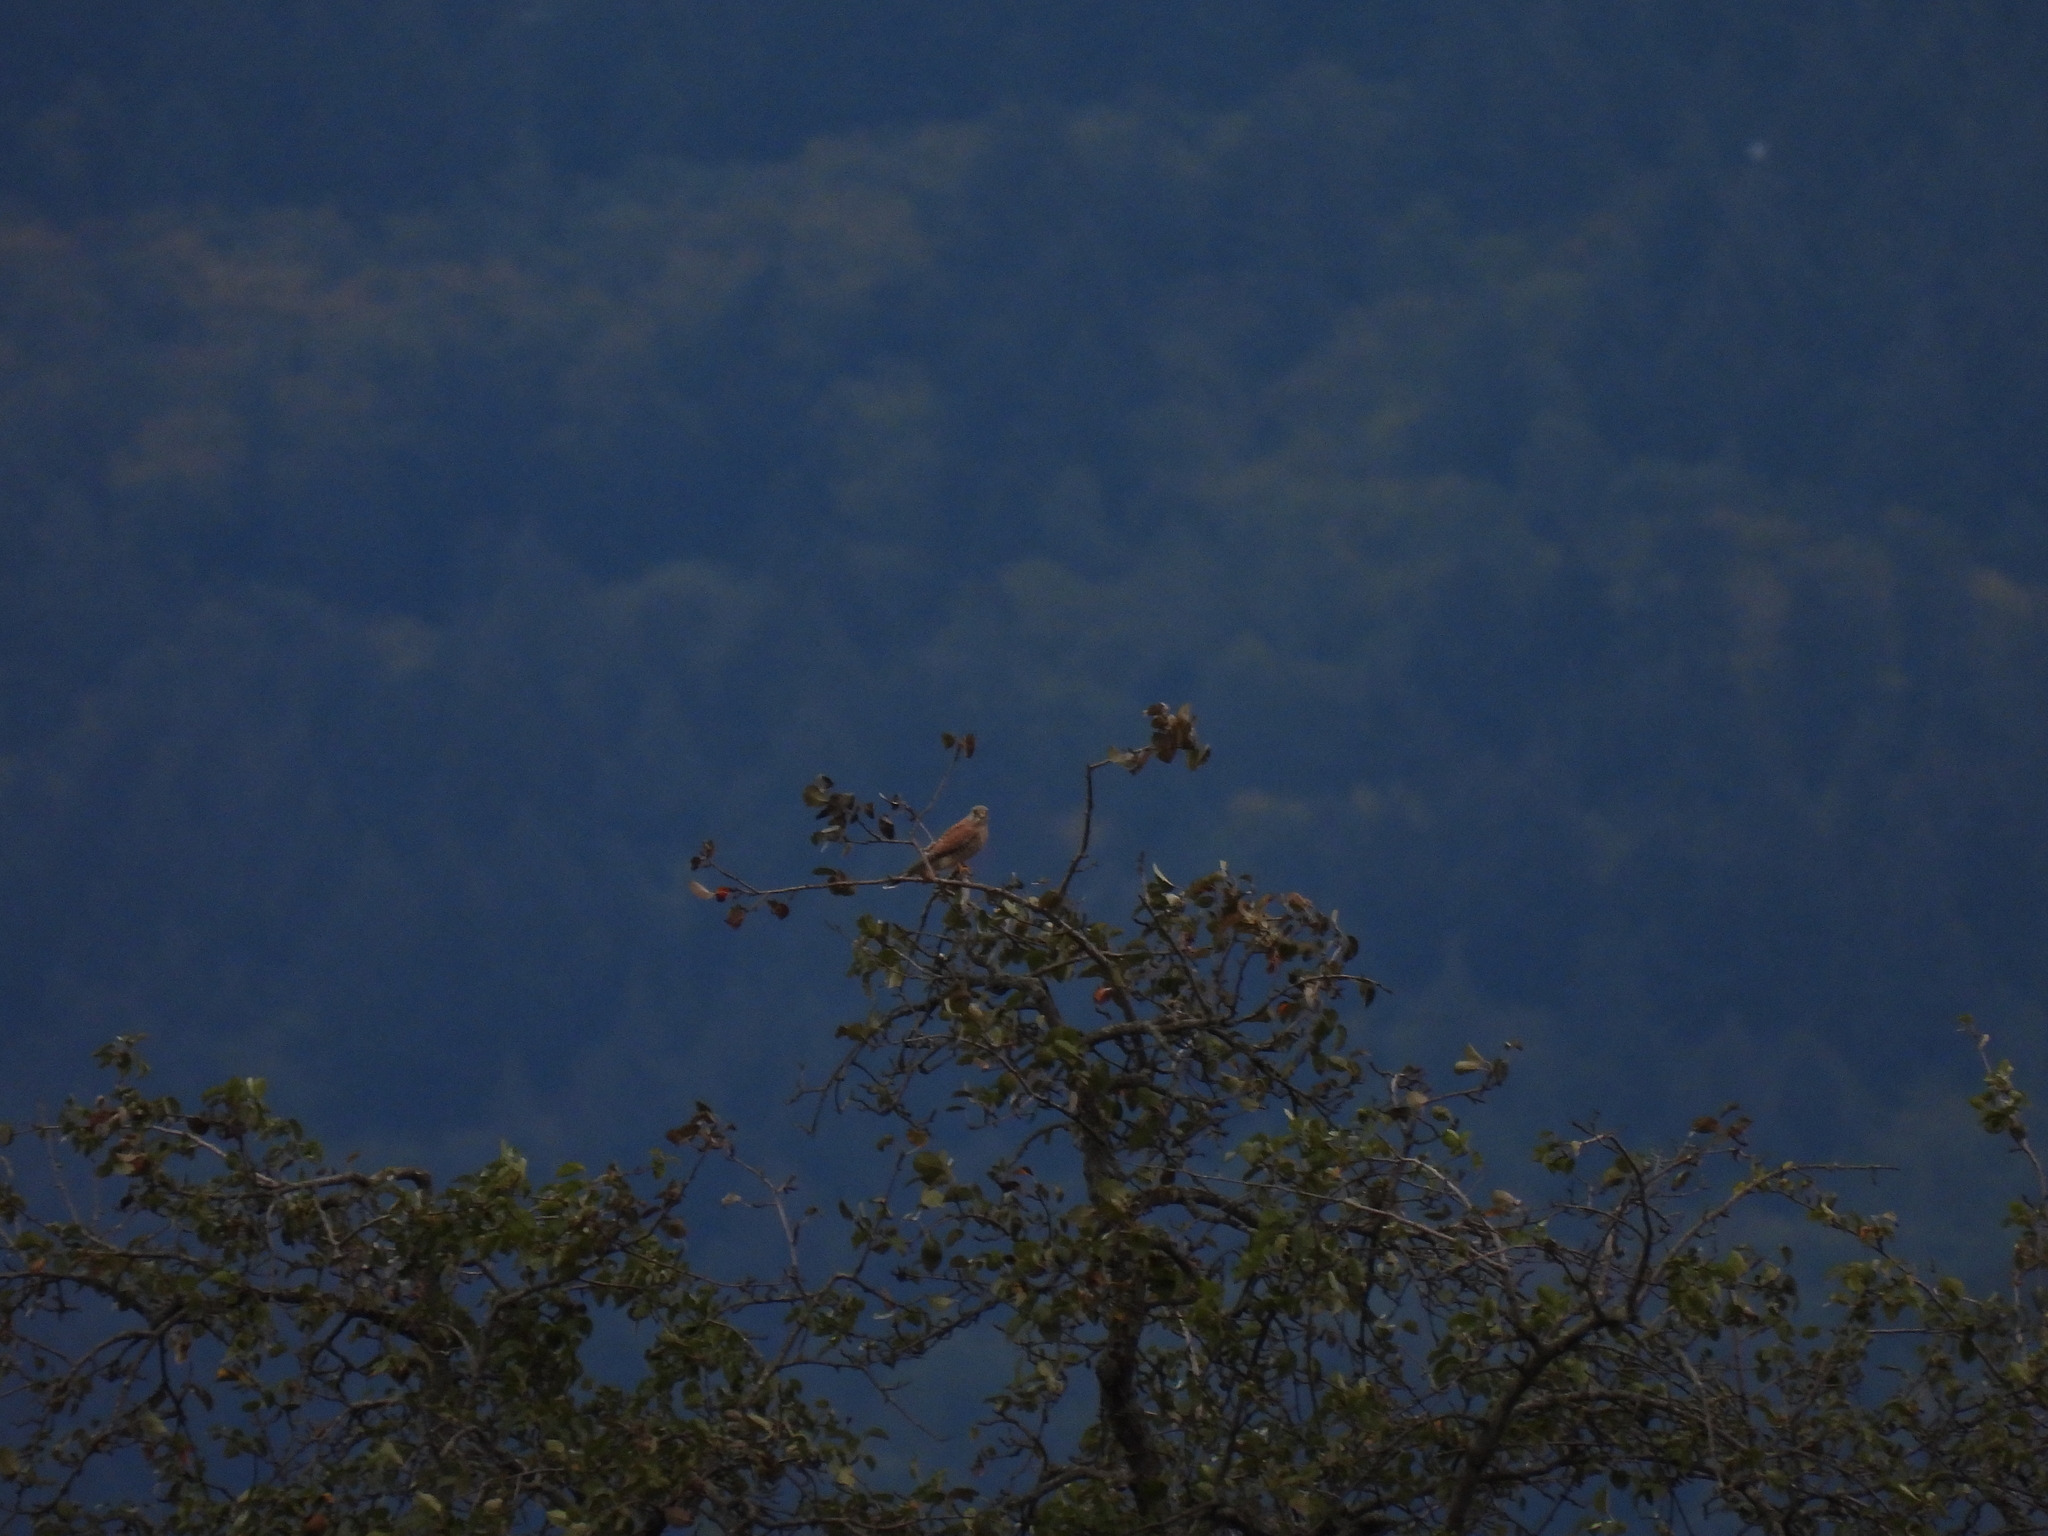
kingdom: Animalia
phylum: Chordata
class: Aves
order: Falconiformes
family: Falconidae
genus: Falco
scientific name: Falco tinnunculus
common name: Common kestrel
